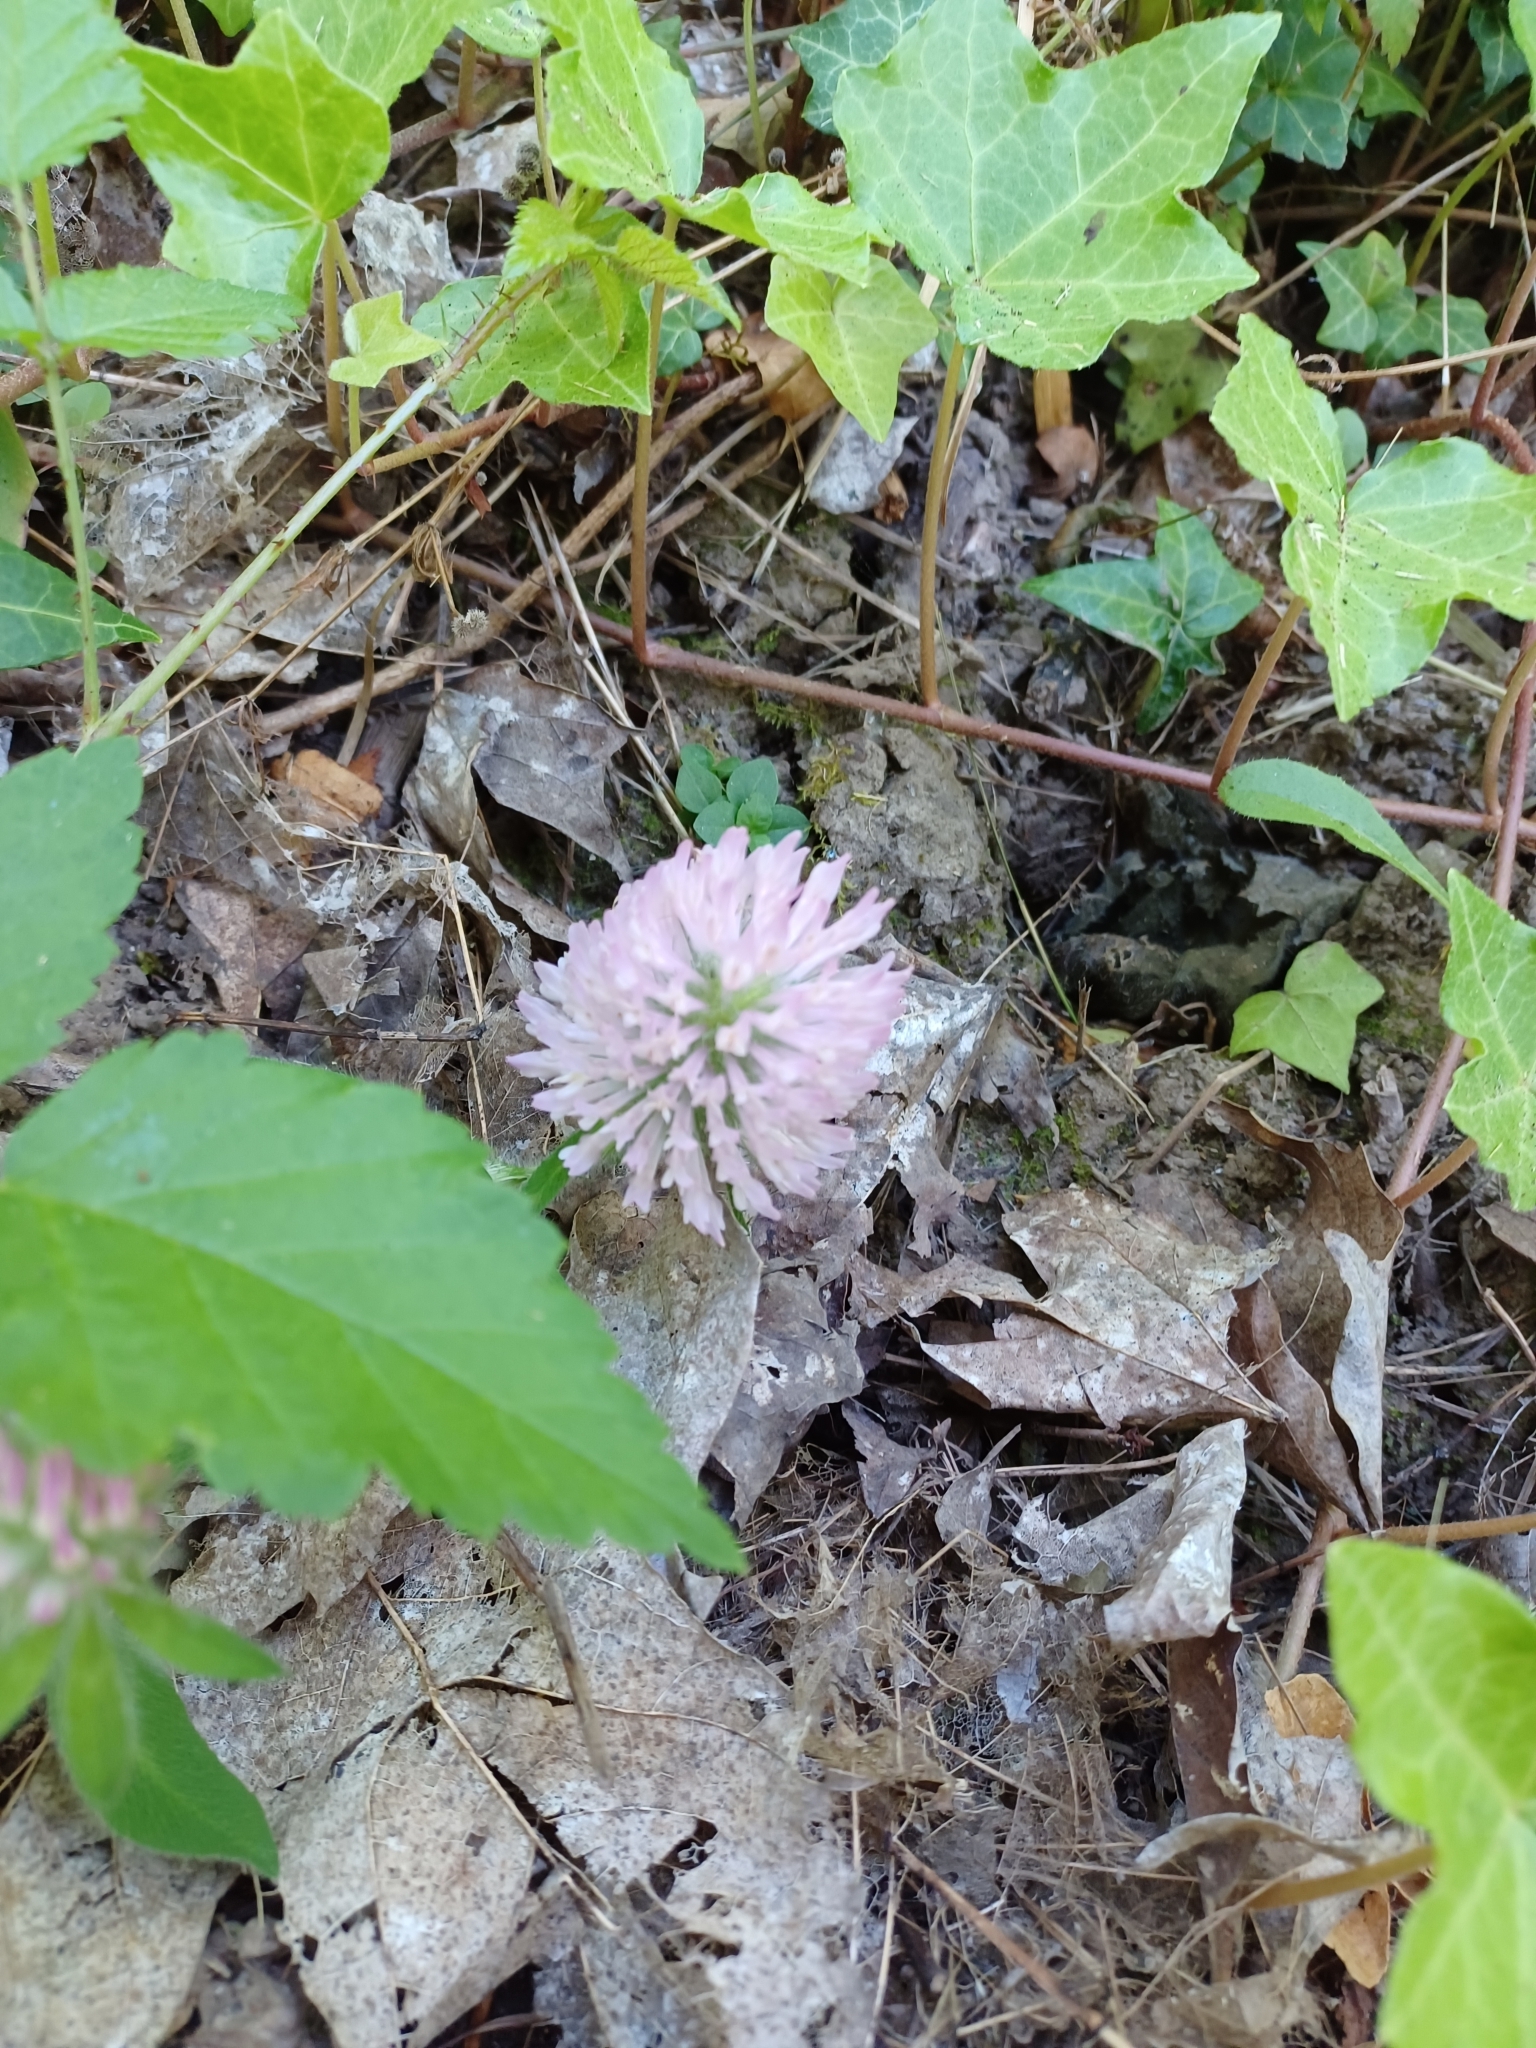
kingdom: Plantae
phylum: Tracheophyta
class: Magnoliopsida
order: Fabales
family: Fabaceae
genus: Trifolium
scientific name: Trifolium pratense
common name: Red clover
